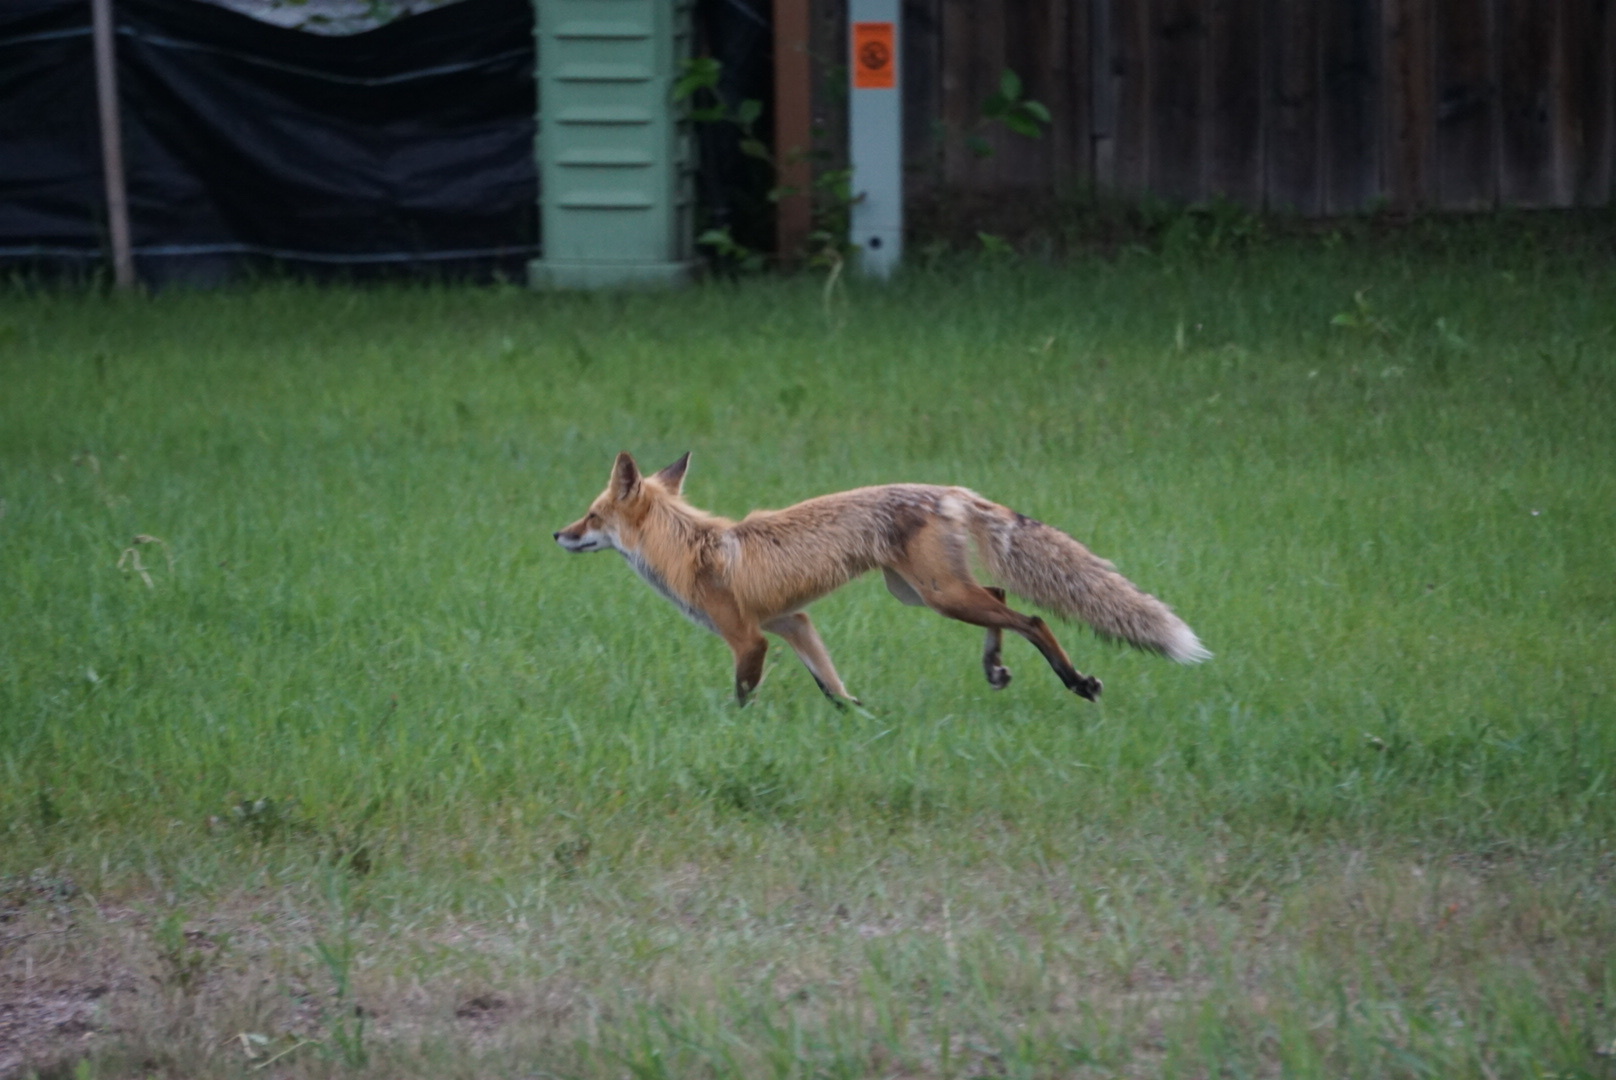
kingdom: Animalia
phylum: Chordata
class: Mammalia
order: Carnivora
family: Canidae
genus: Vulpes
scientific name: Vulpes vulpes
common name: Red fox
